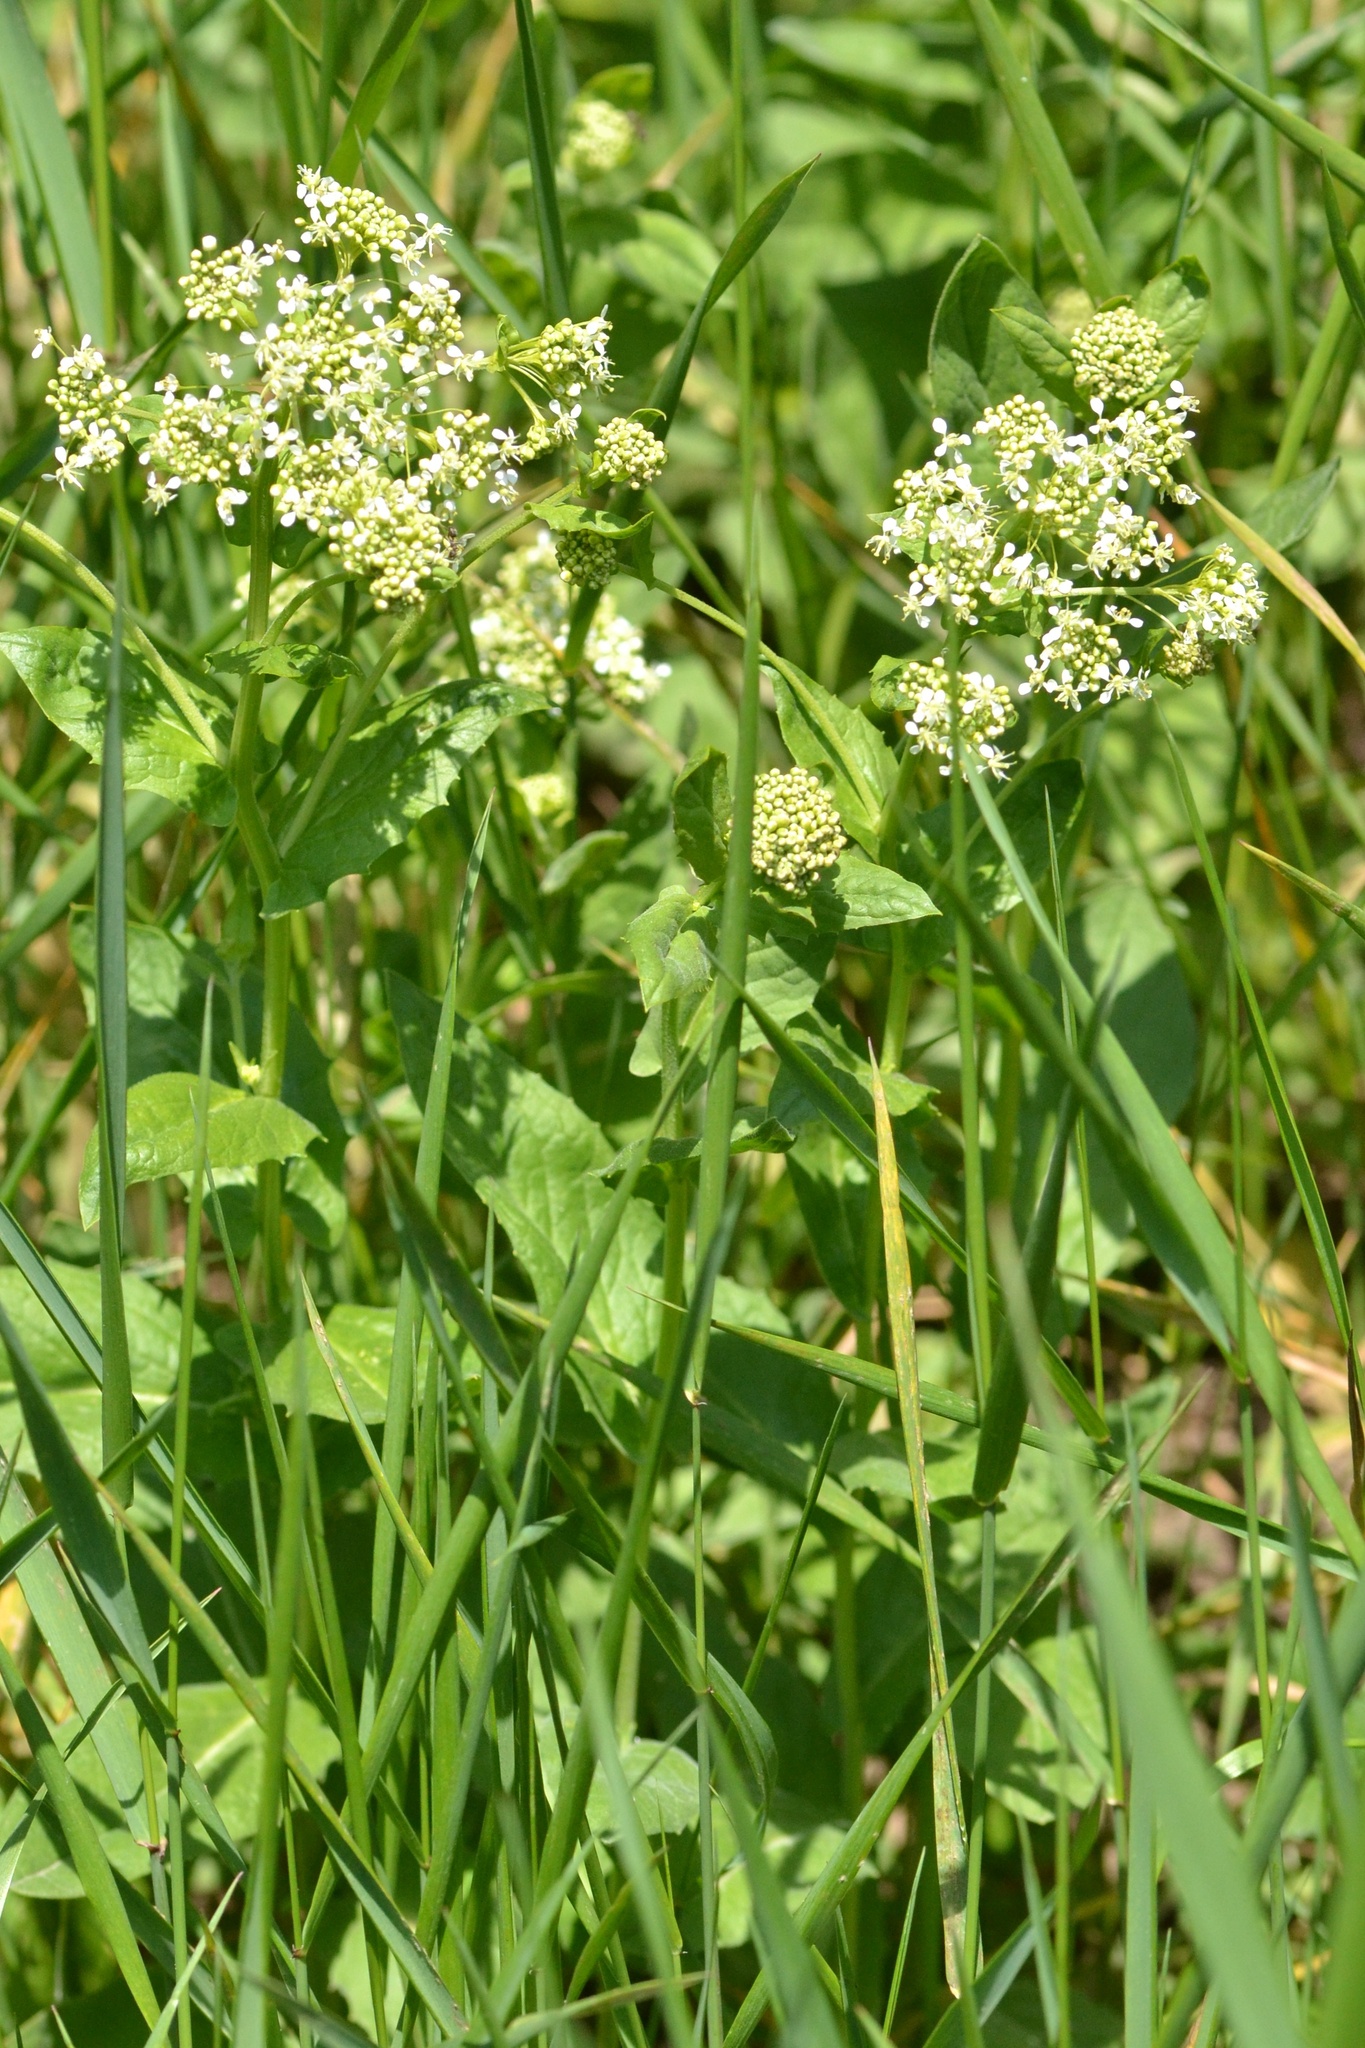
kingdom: Plantae
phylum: Tracheophyta
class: Magnoliopsida
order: Brassicales
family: Brassicaceae
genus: Lepidium
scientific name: Lepidium draba
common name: Hoary cress
